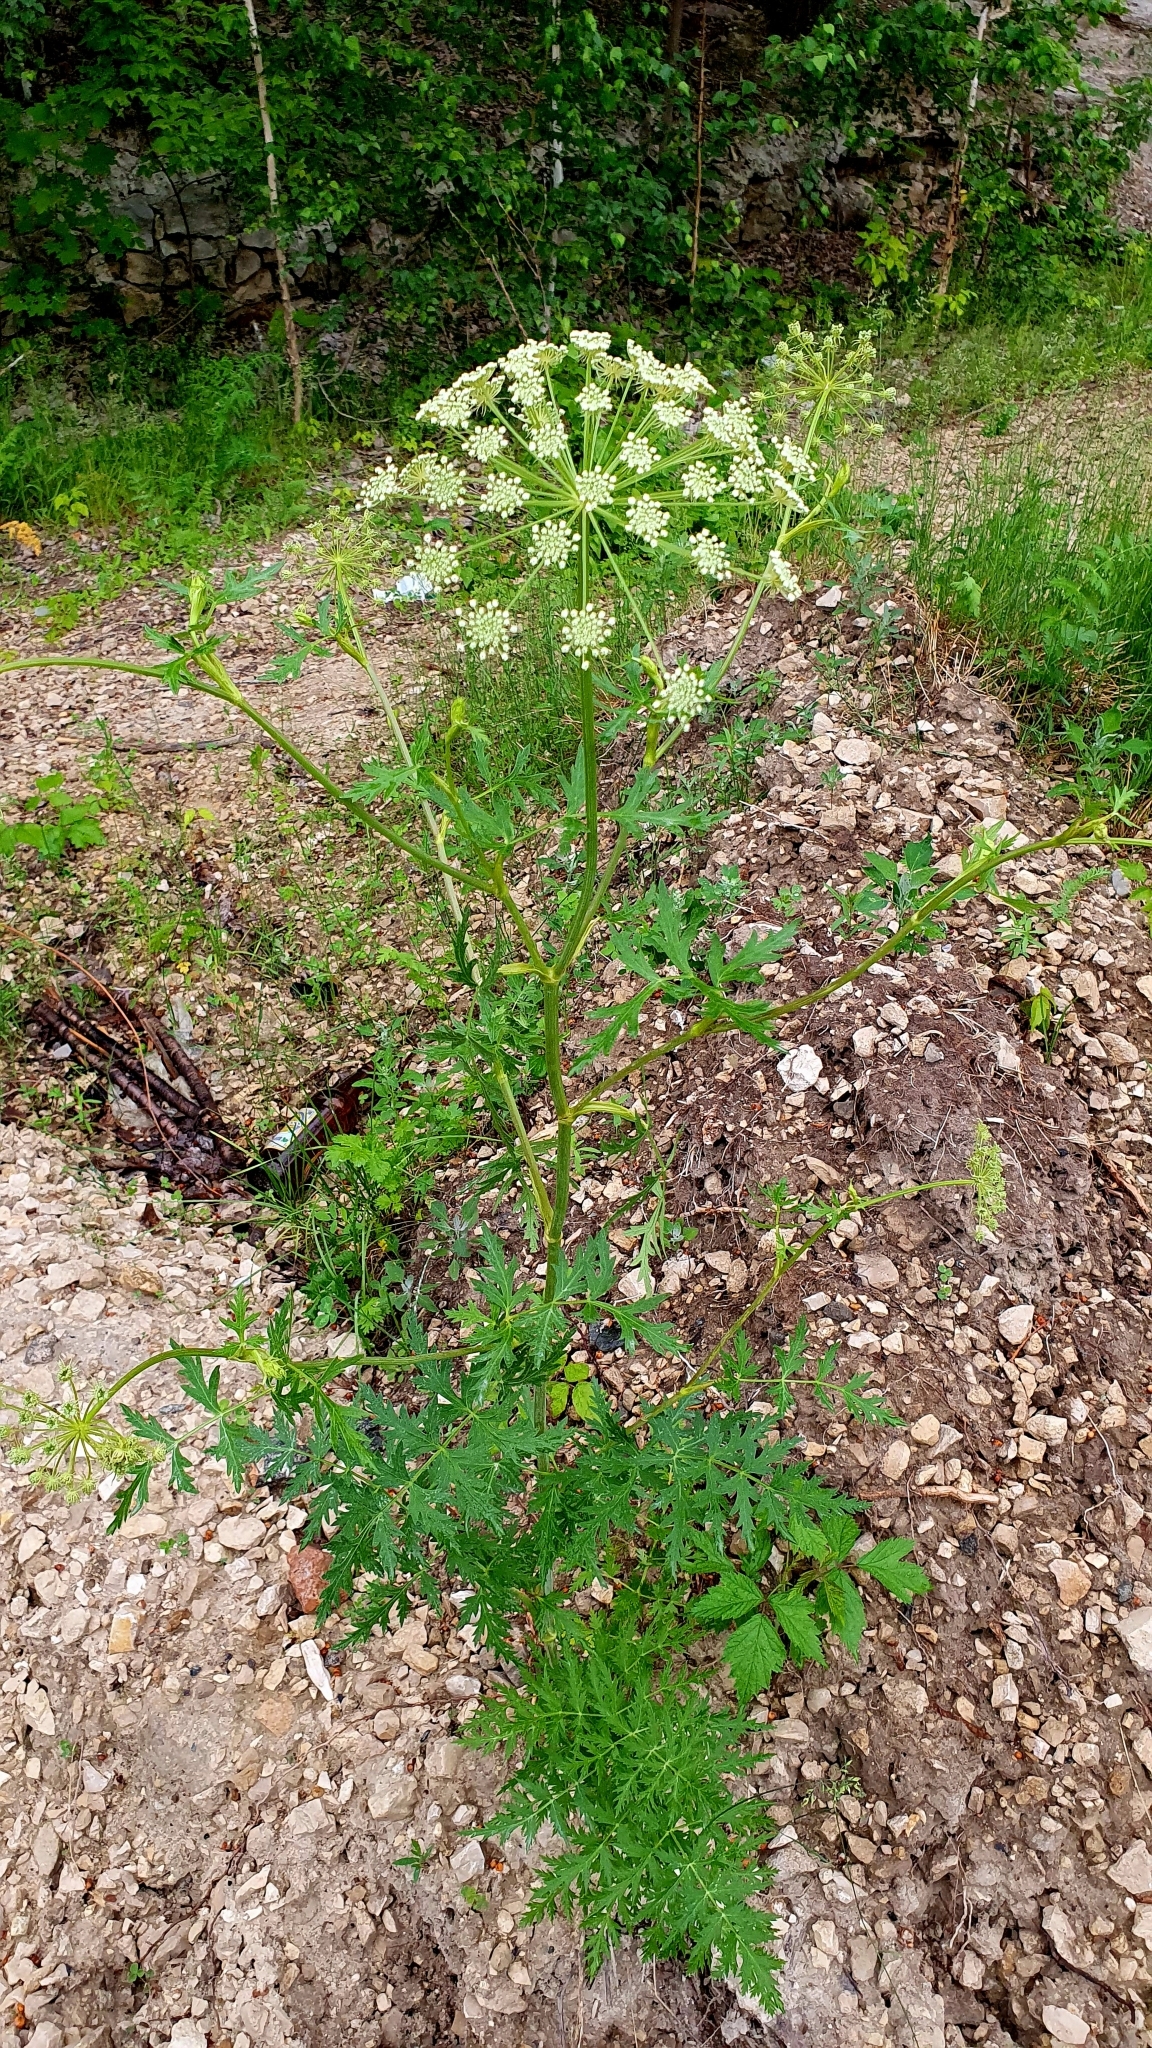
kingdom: Plantae
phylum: Tracheophyta
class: Magnoliopsida
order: Apiales
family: Apiaceae
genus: Seseli
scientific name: Seseli libanotis
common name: Mooncarrot
